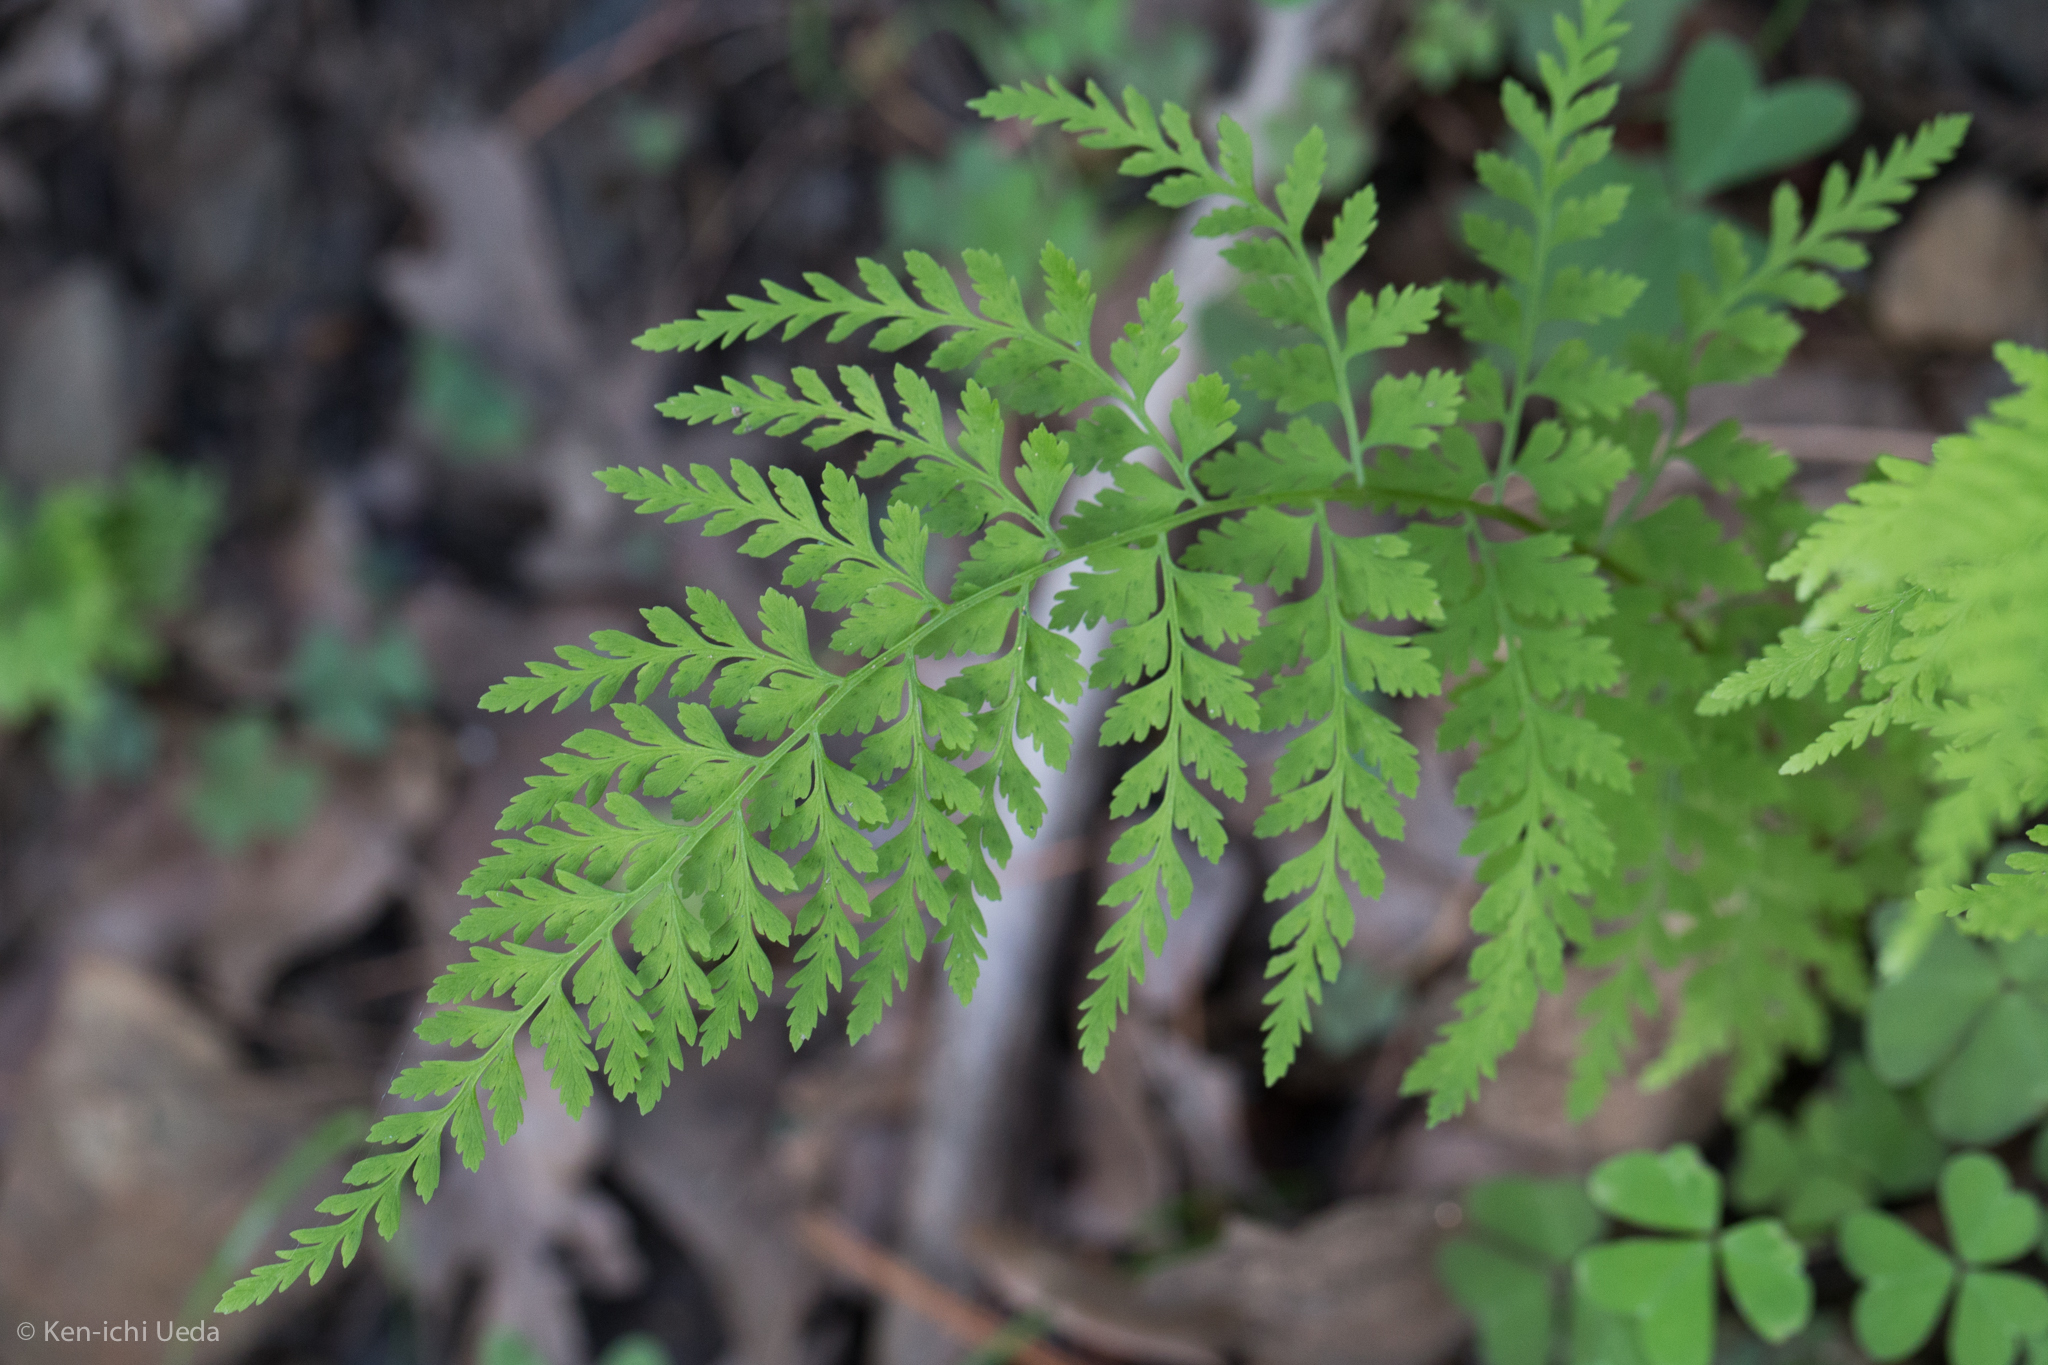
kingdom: Plantae
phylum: Tracheophyta
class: Polypodiopsida
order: Polypodiales
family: Cystopteridaceae
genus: Cystopteris
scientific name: Cystopteris reevesiana
